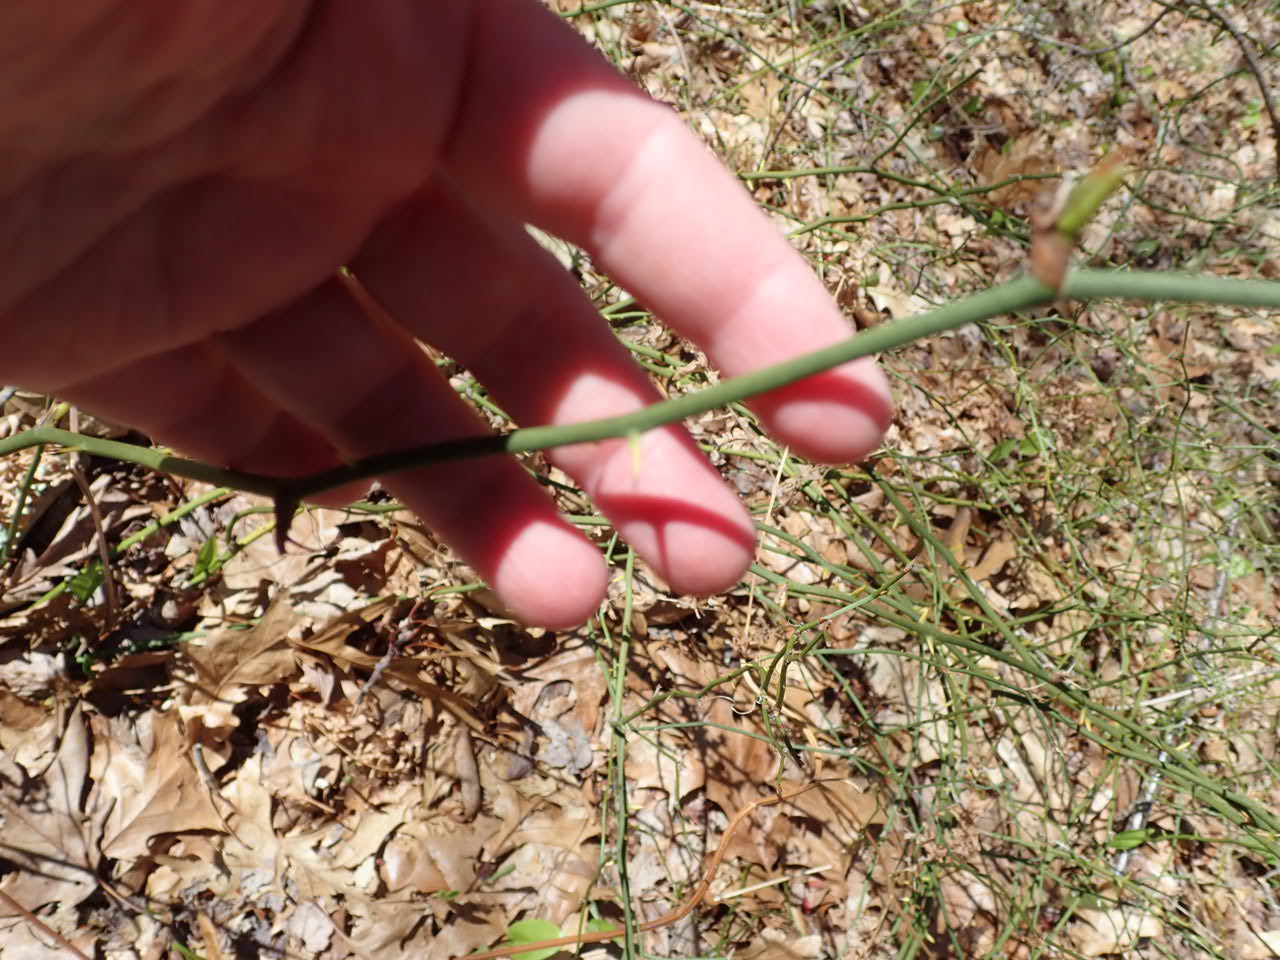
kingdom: Plantae
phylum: Tracheophyta
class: Liliopsida
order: Liliales
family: Smilacaceae
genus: Smilax
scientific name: Smilax rotundifolia
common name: Bullbriar
